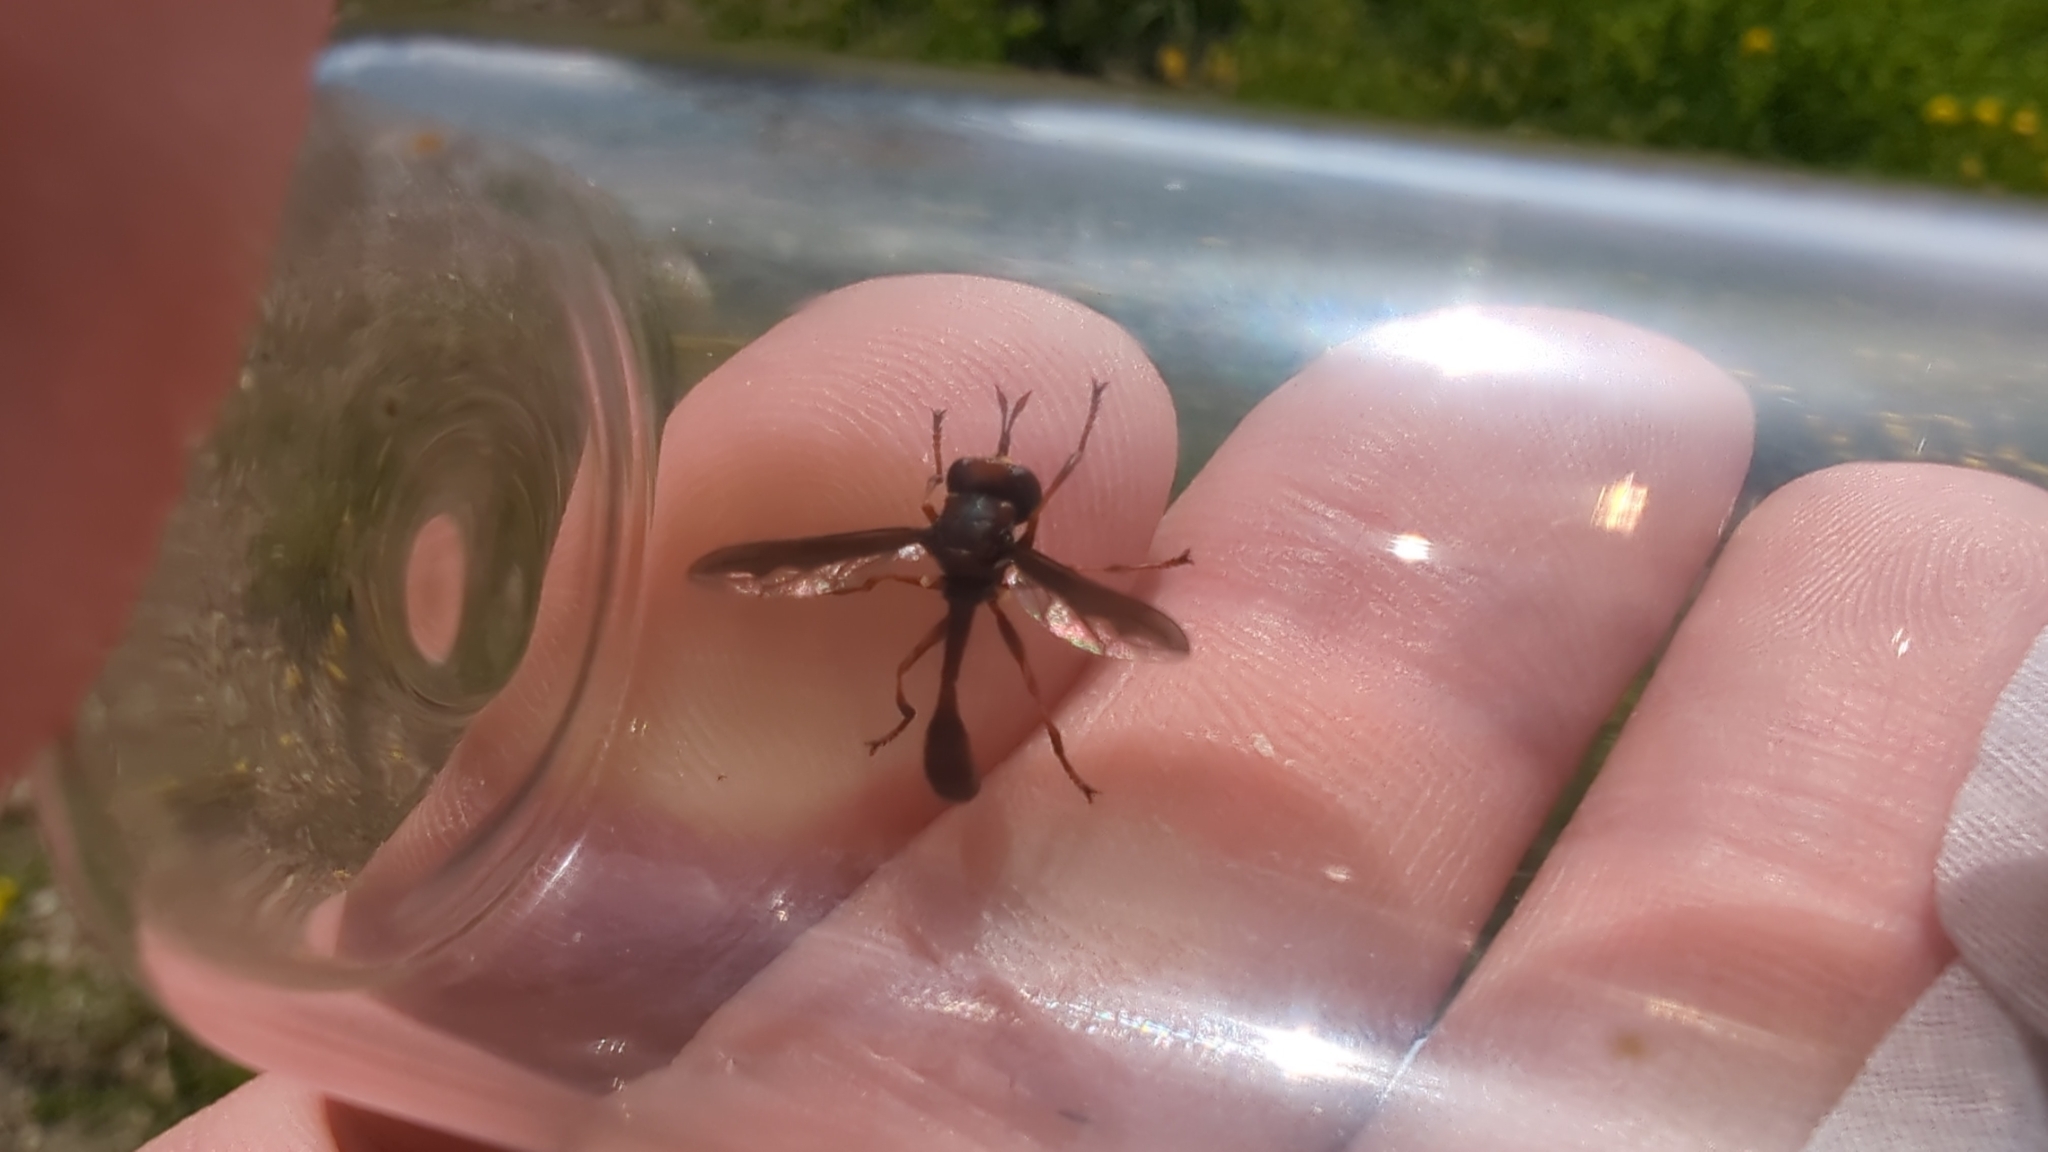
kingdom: Animalia
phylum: Arthropoda
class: Insecta
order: Diptera
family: Conopidae
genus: Physocephala
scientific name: Physocephala burgessi
